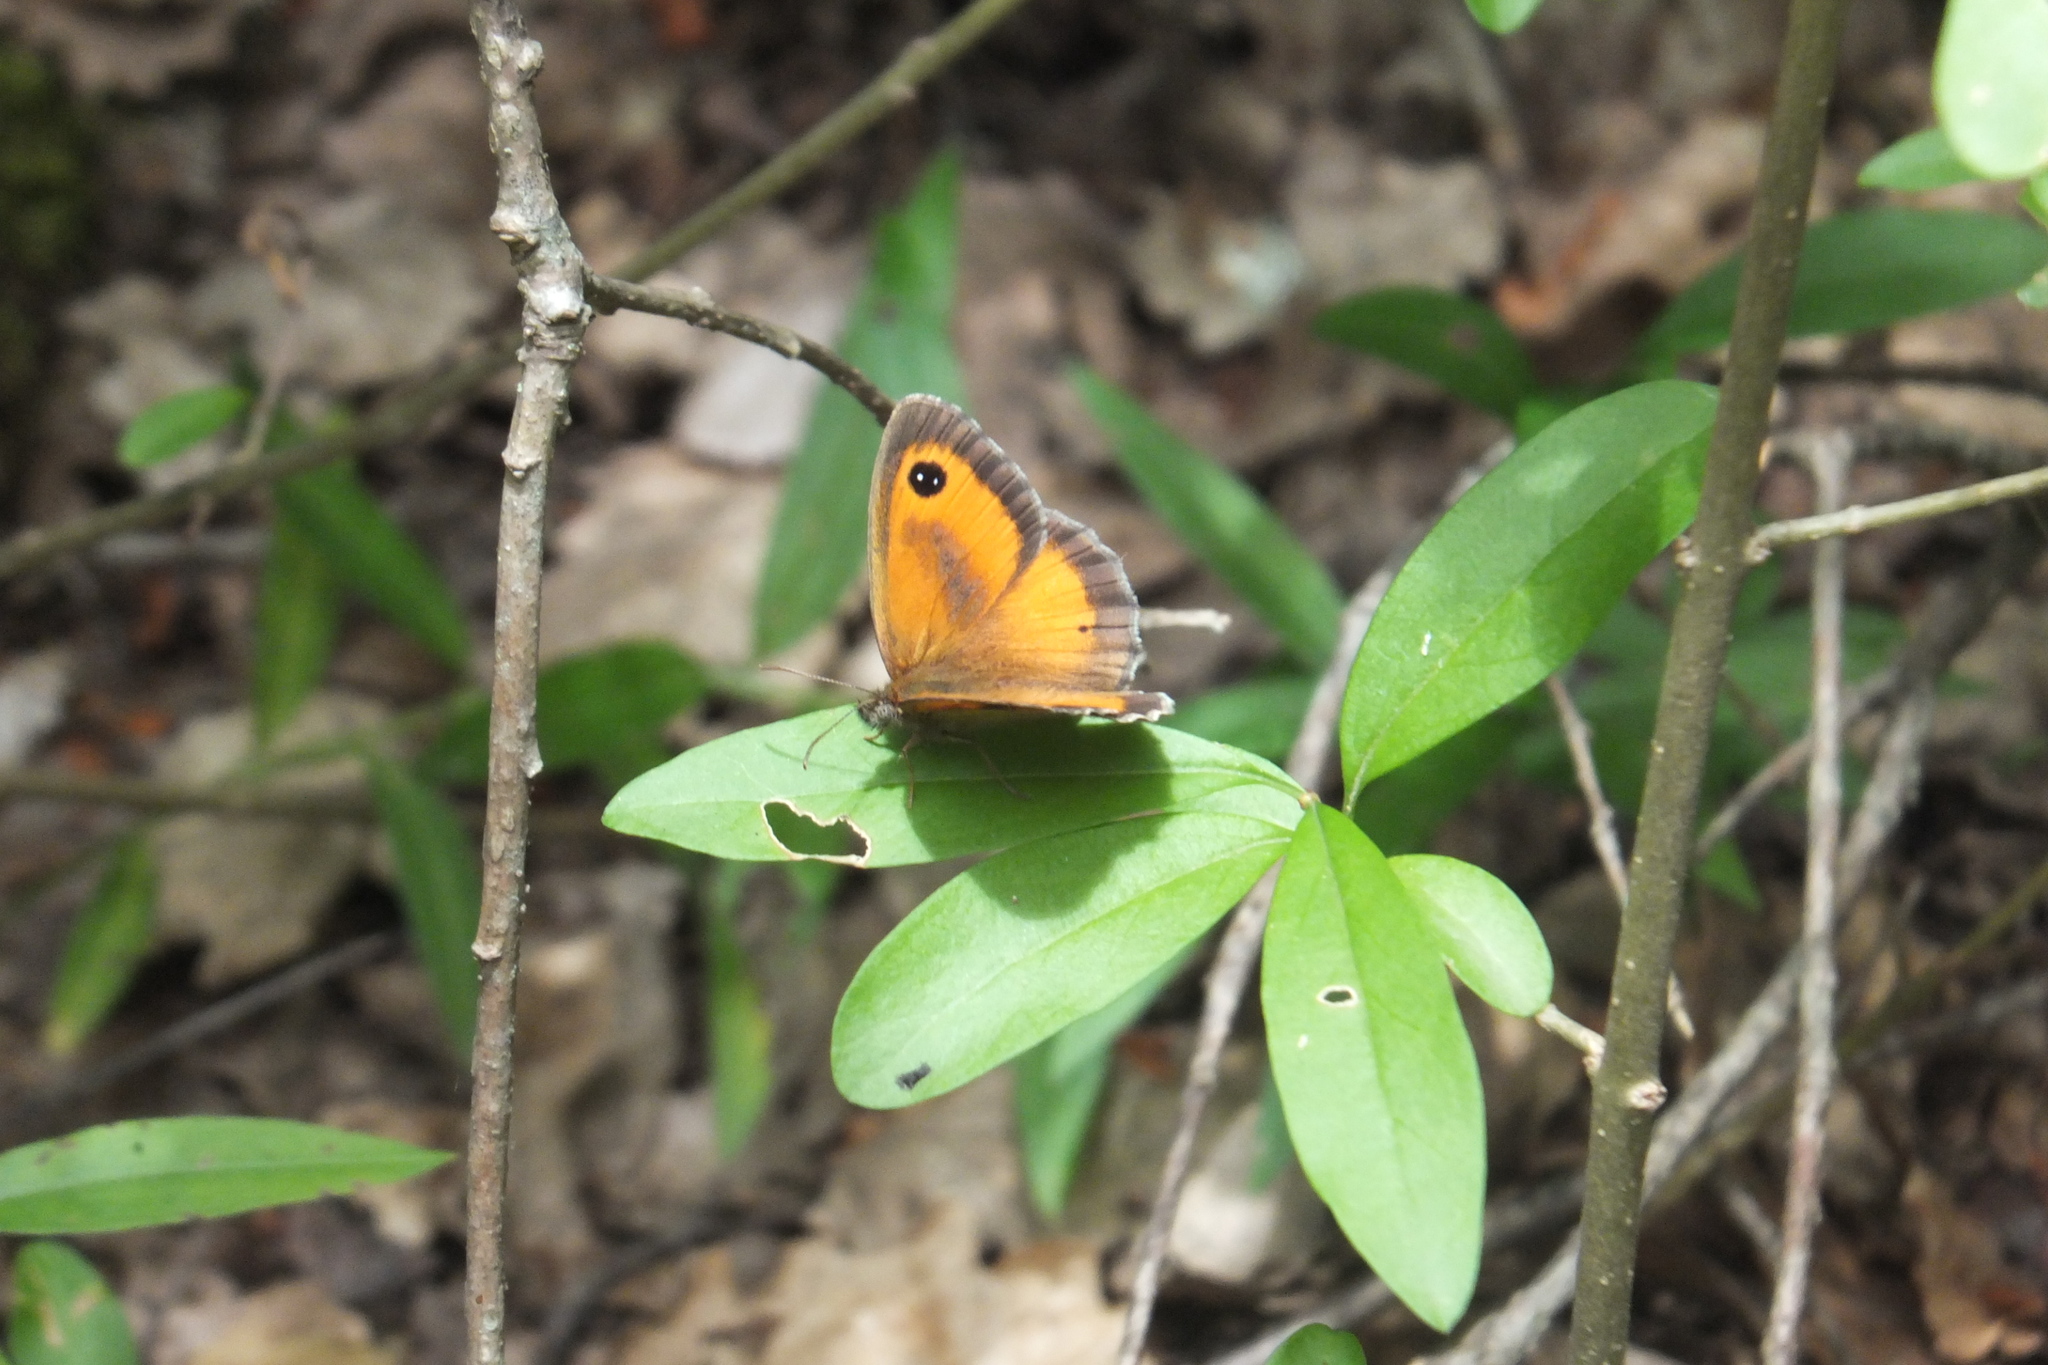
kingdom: Animalia
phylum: Arthropoda
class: Insecta
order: Lepidoptera
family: Nymphalidae
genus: Pyronia
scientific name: Pyronia tithonus
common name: Gatekeeper
